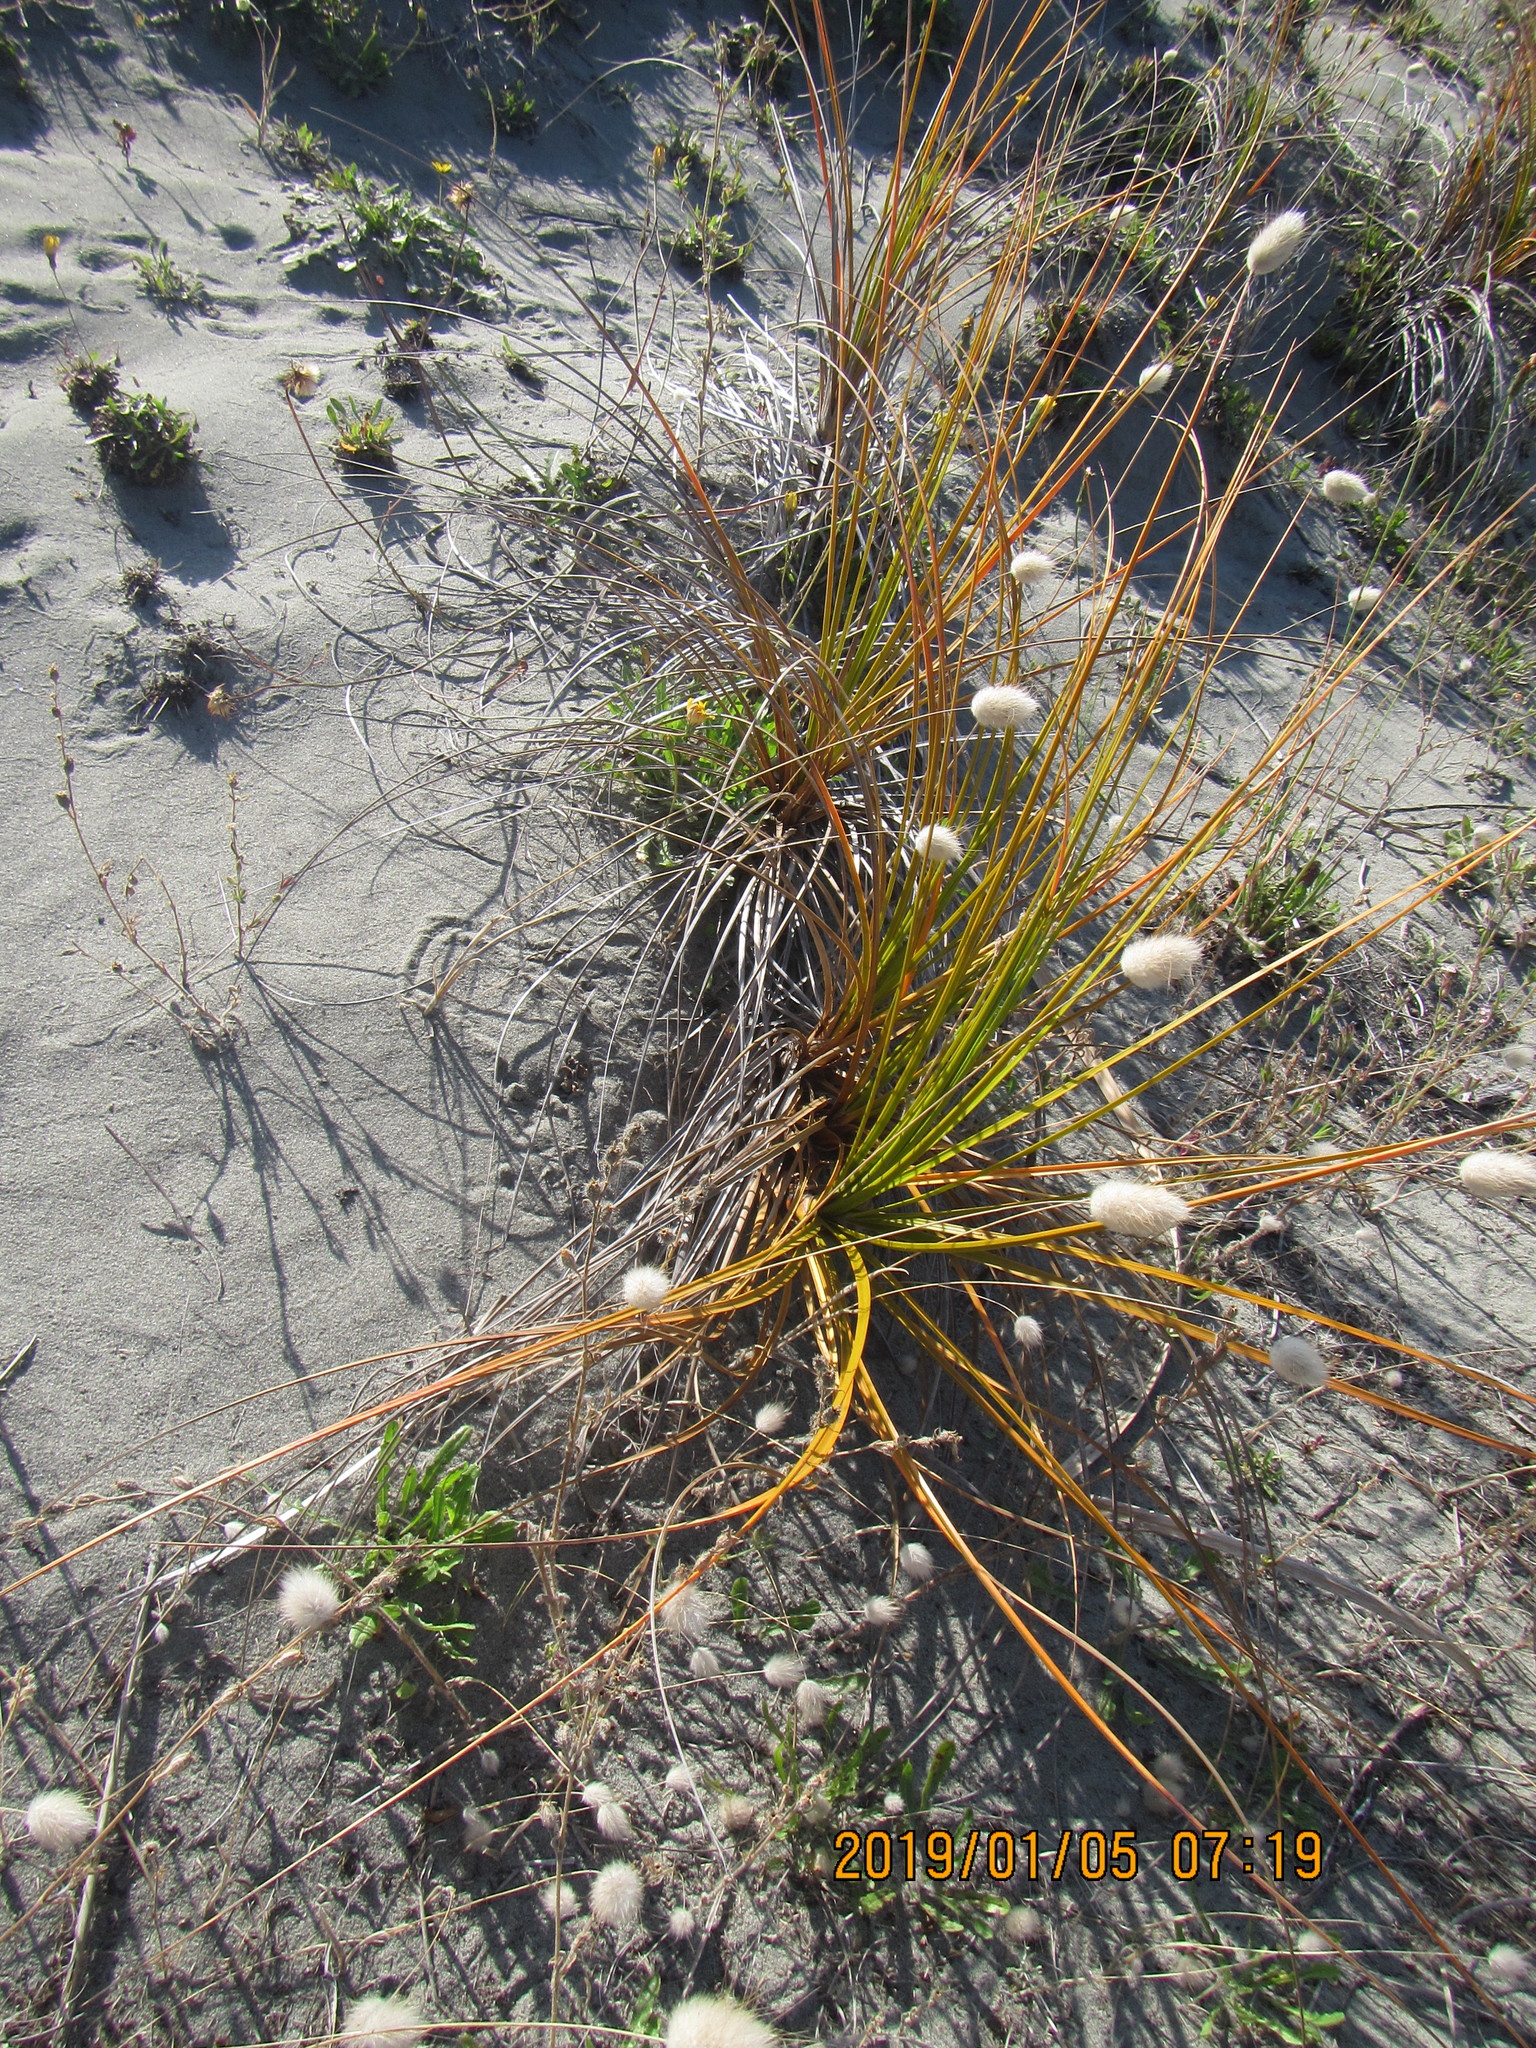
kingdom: Plantae
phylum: Tracheophyta
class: Liliopsida
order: Poales
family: Cyperaceae
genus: Ficinia
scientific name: Ficinia spiralis
